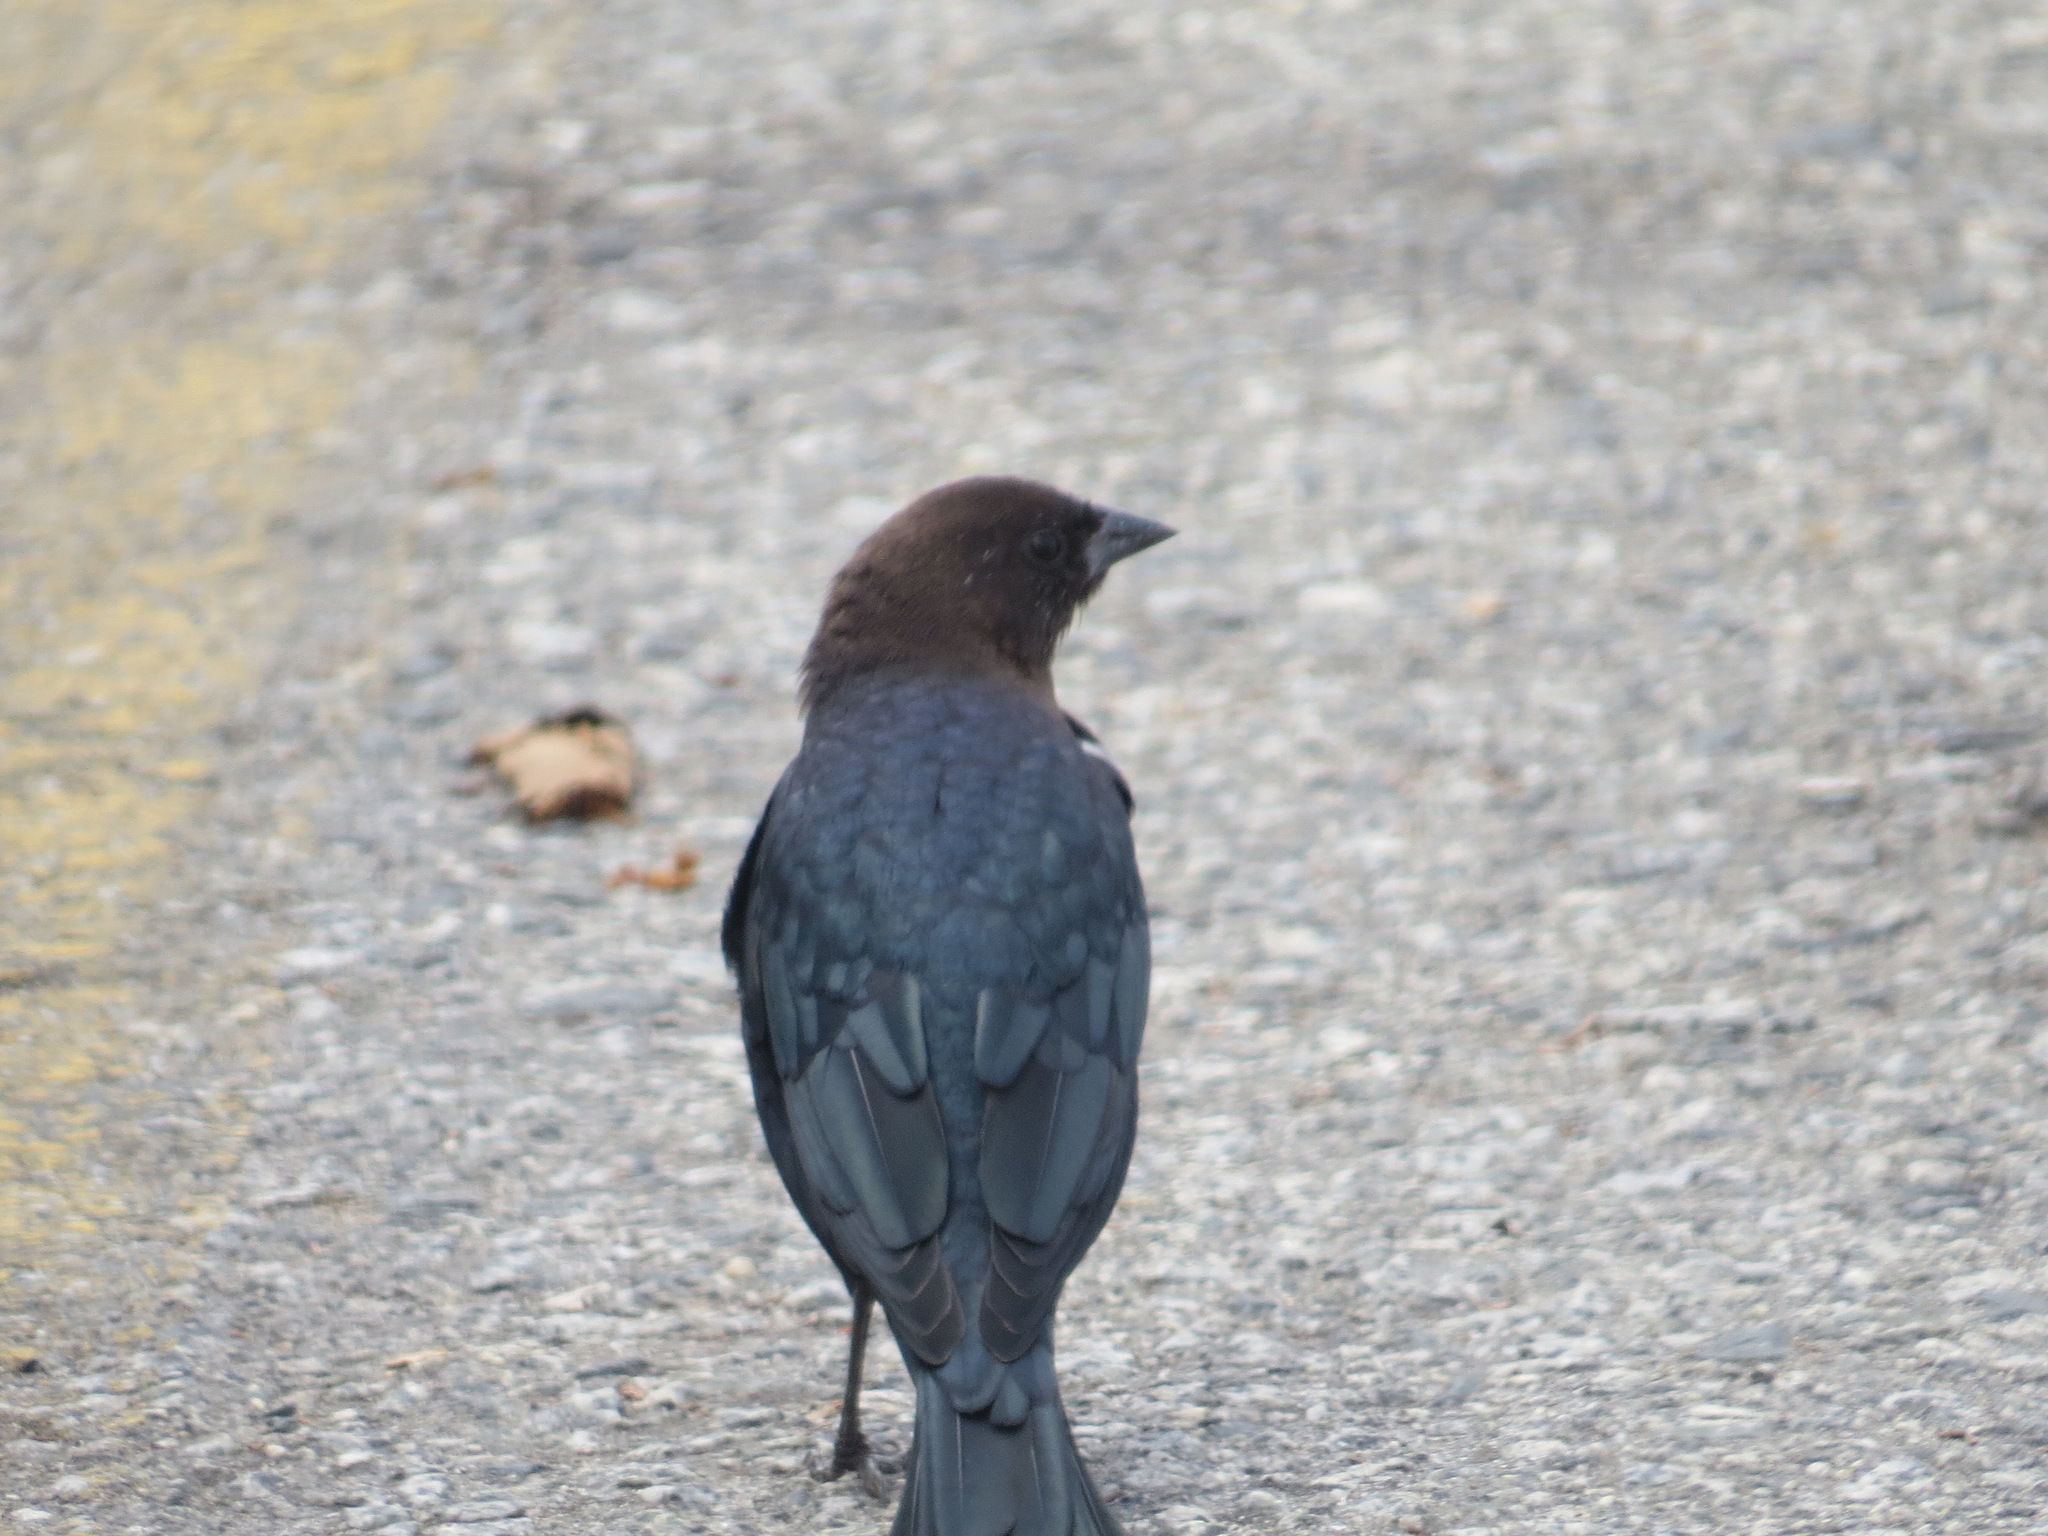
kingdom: Animalia
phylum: Chordata
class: Aves
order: Passeriformes
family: Icteridae
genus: Molothrus
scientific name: Molothrus ater
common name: Brown-headed cowbird
